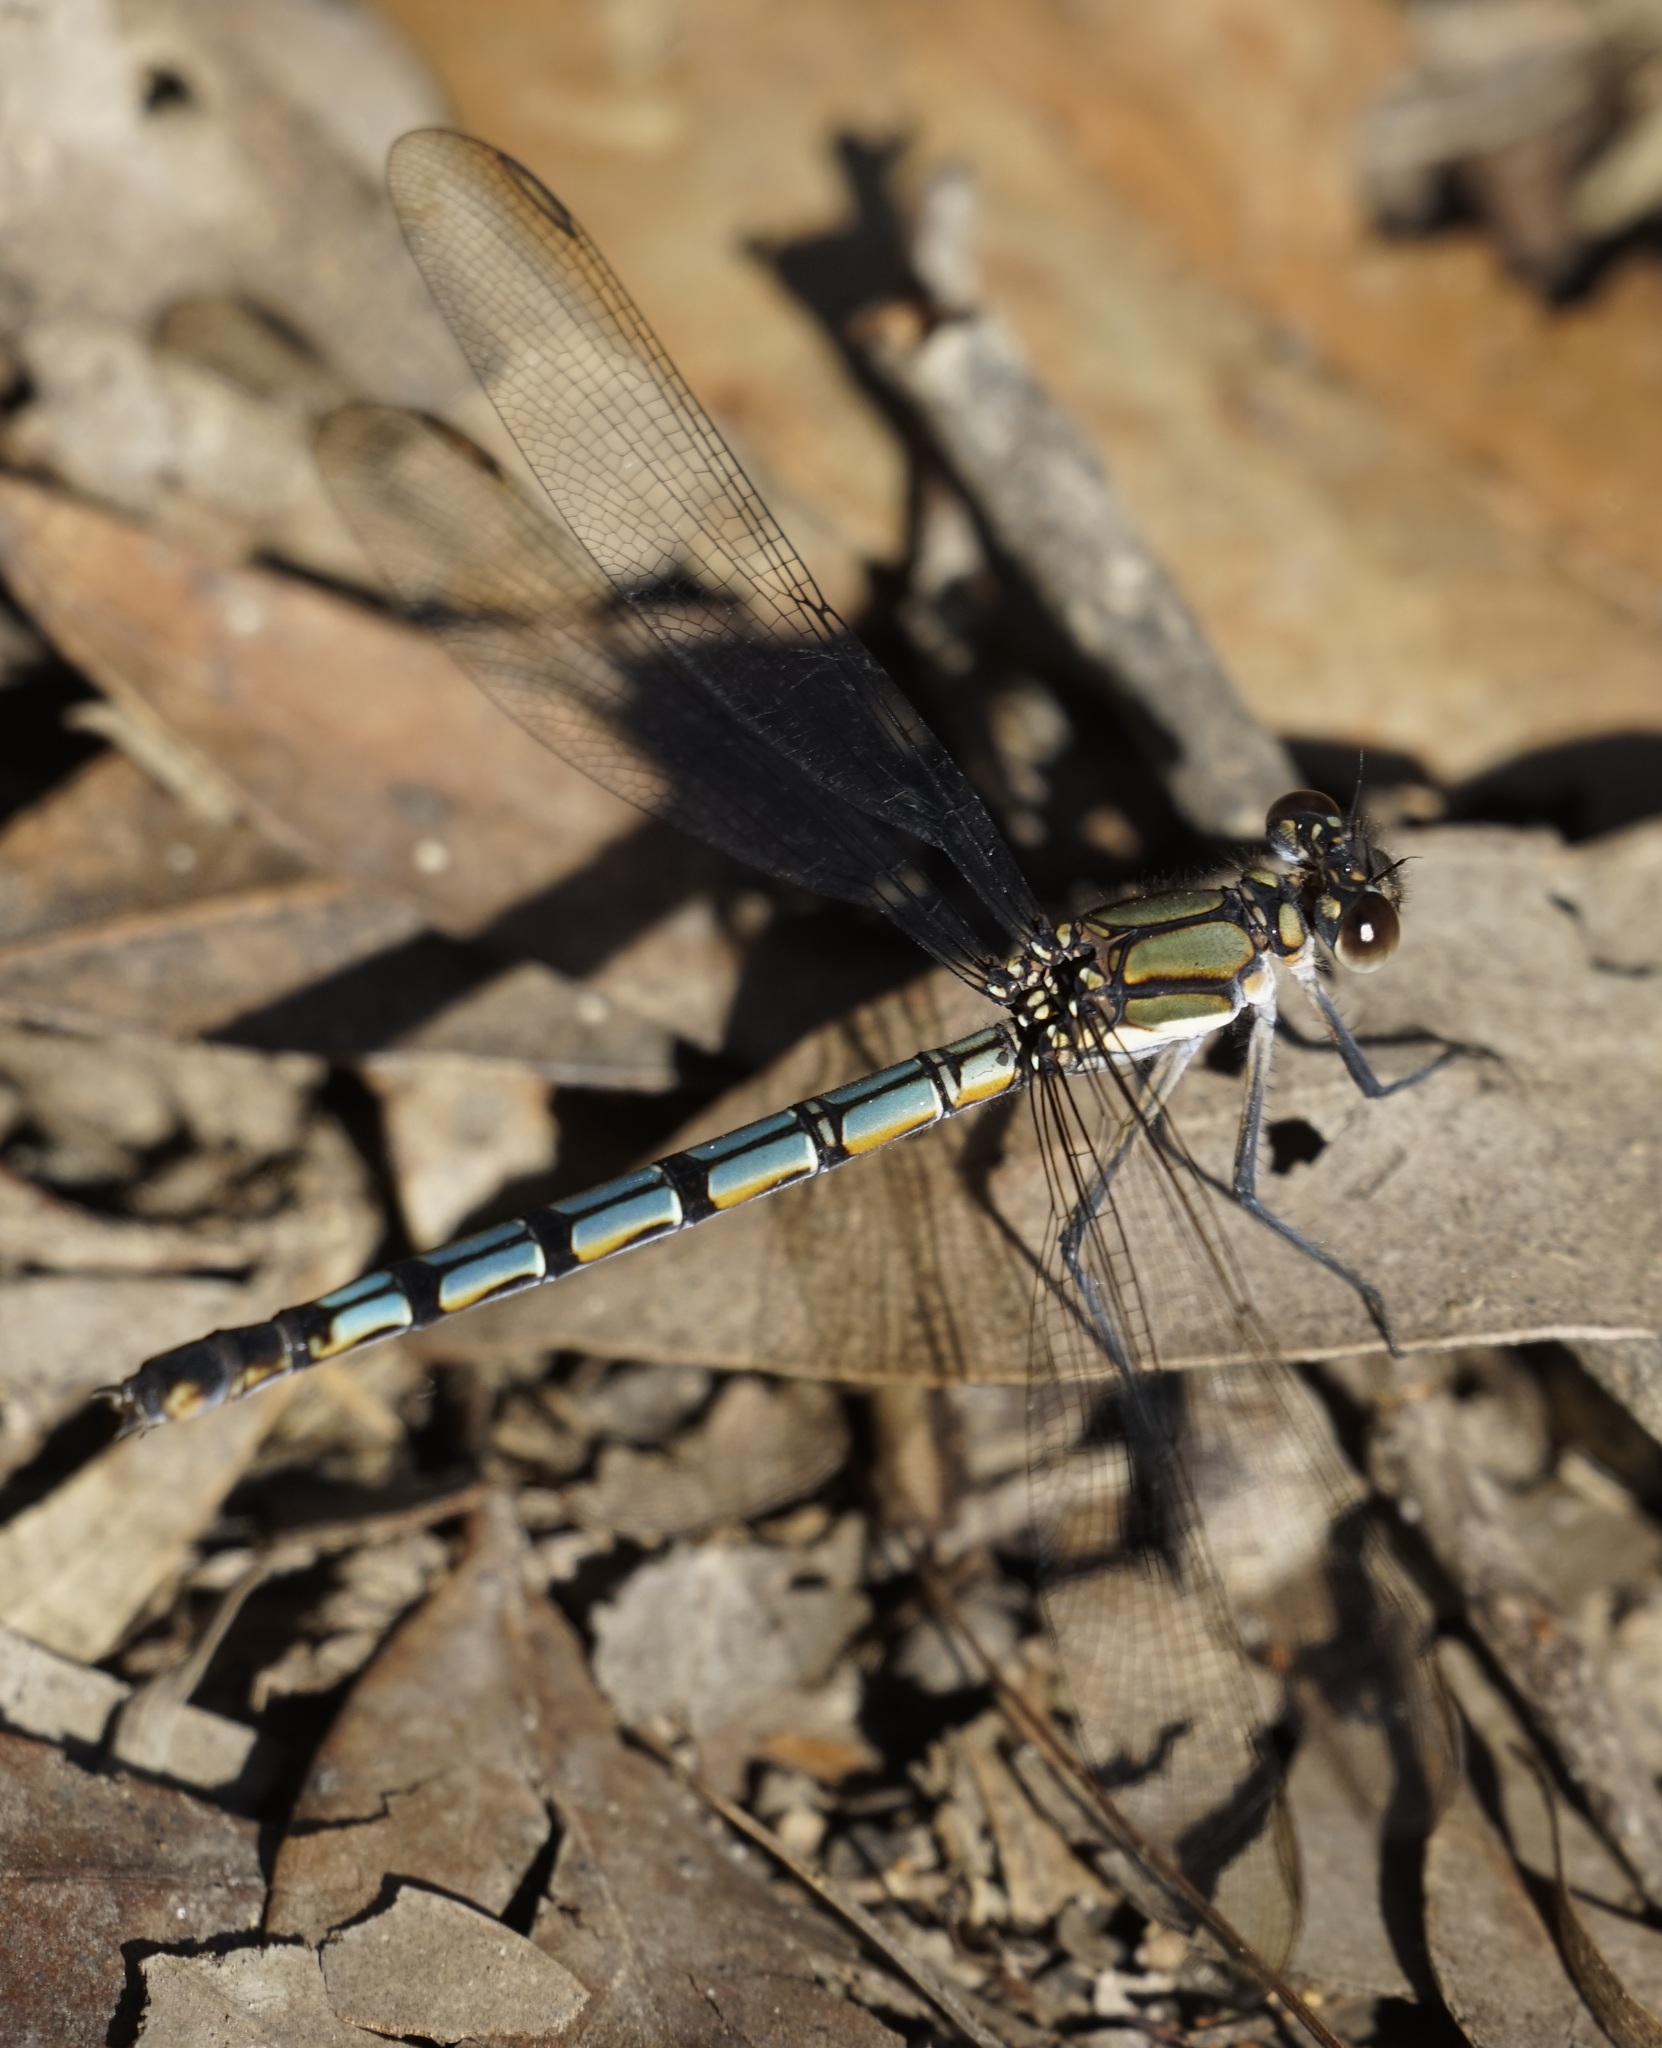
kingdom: Animalia
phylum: Arthropoda
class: Insecta
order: Odonata
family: Lestoideidae
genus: Diphlebia
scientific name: Diphlebia lestoides
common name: Whitewater rockmaster
